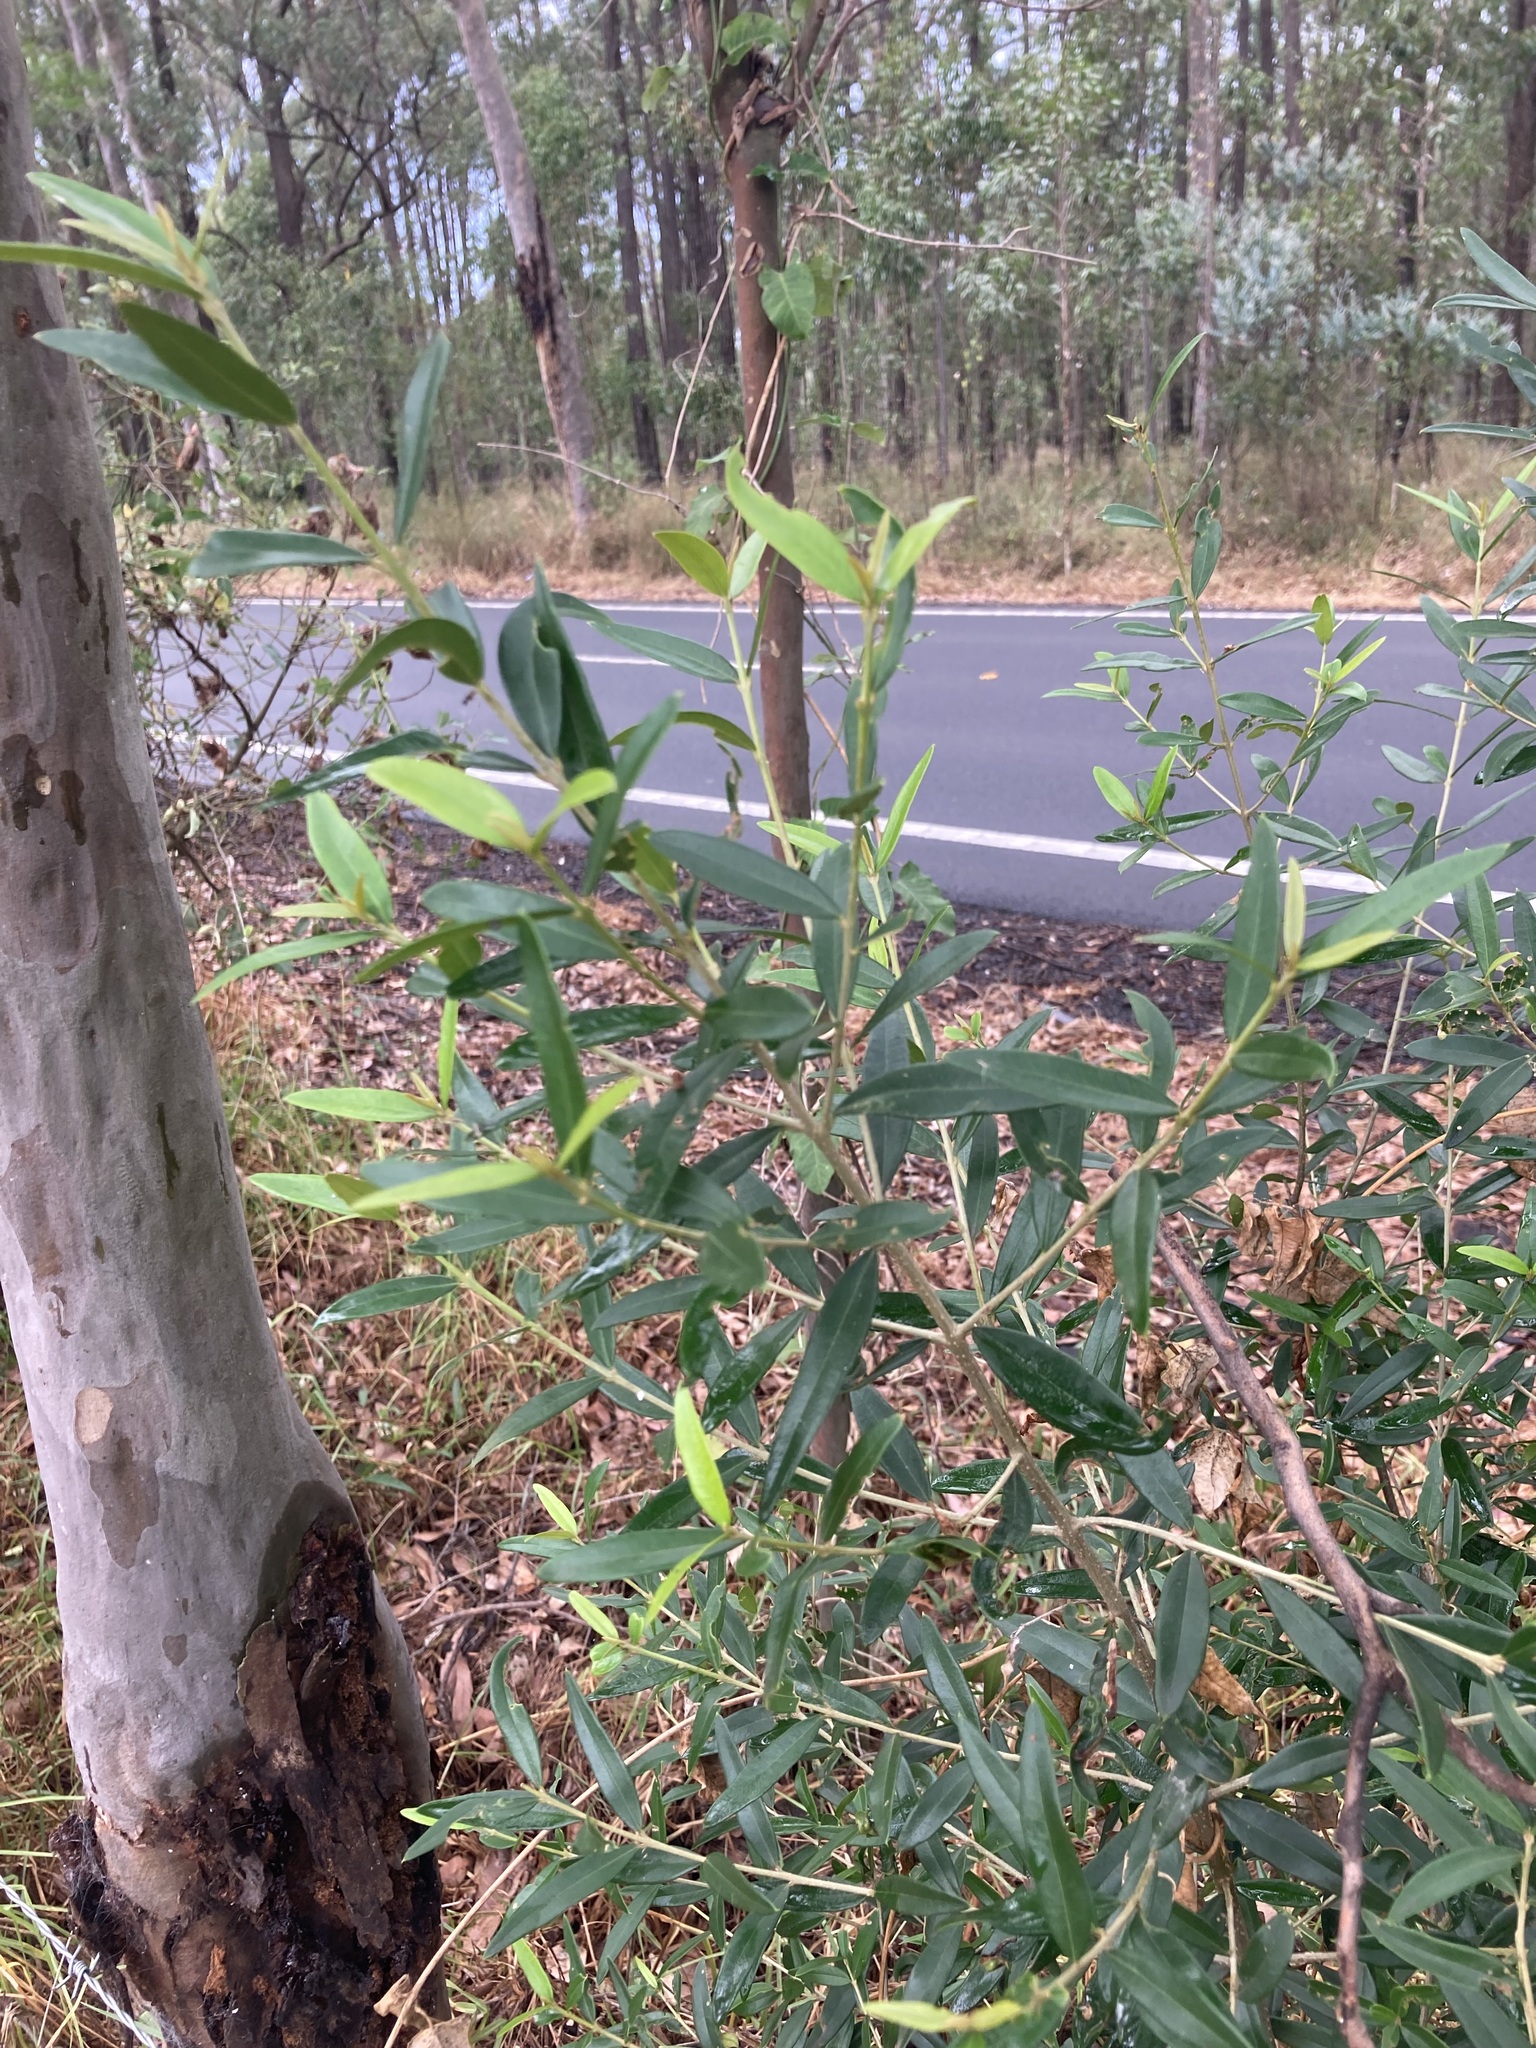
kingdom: Plantae
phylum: Tracheophyta
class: Magnoliopsida
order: Lamiales
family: Oleaceae
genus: Olea
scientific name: Olea europaea
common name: Olive
